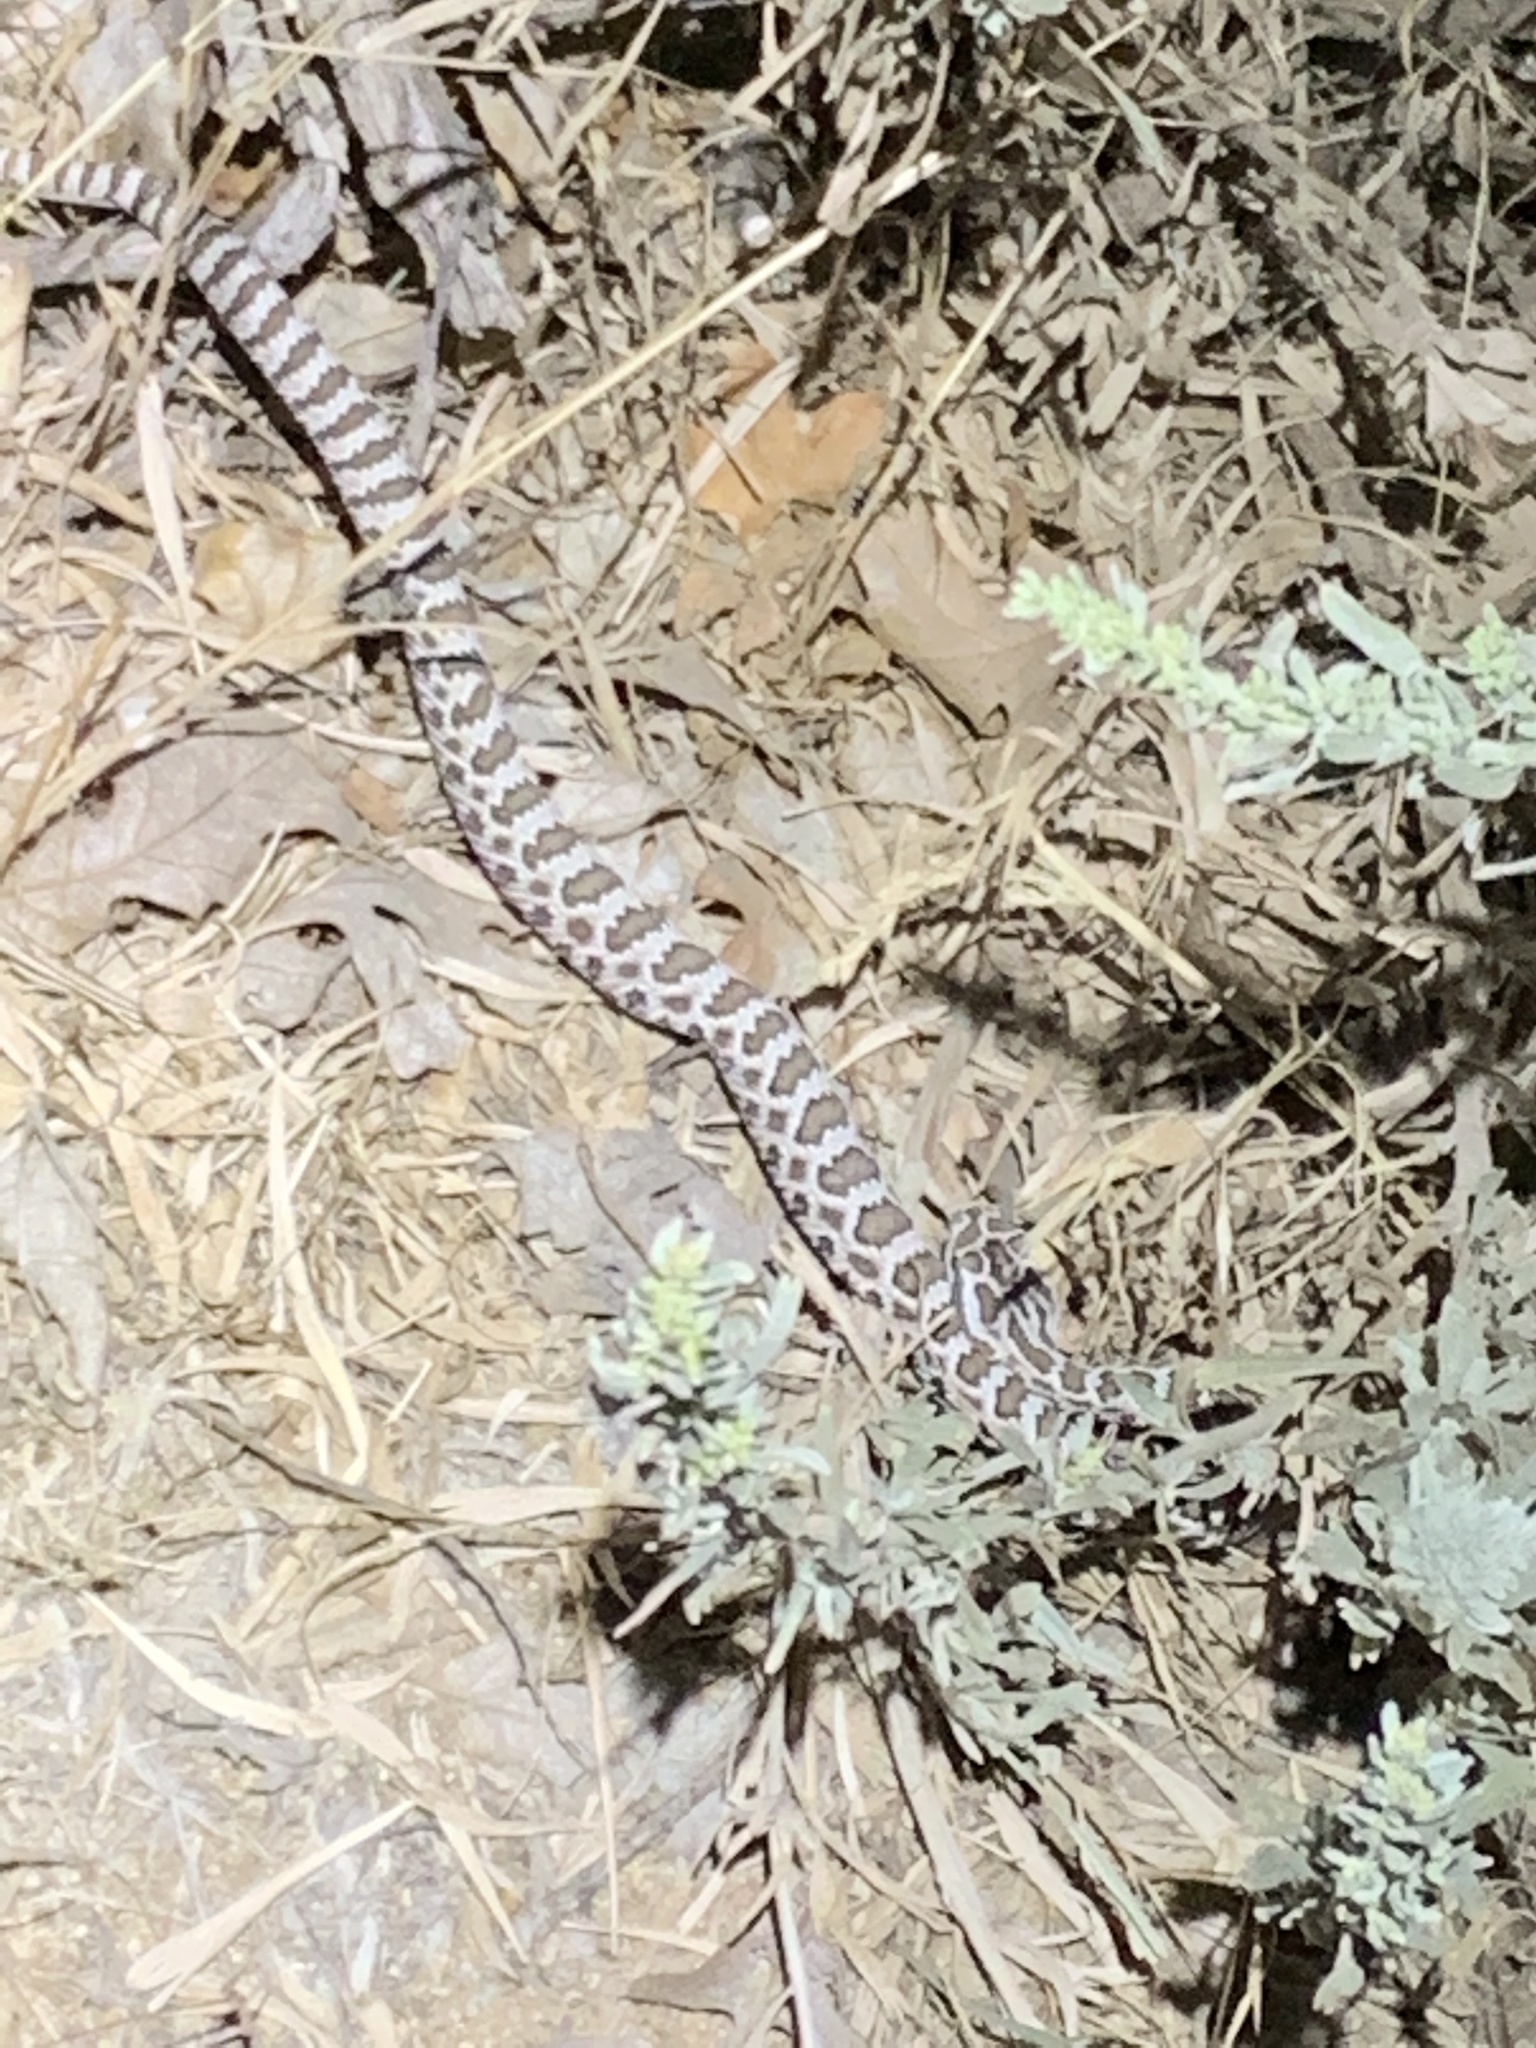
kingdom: Animalia
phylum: Chordata
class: Squamata
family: Viperidae
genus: Crotalus
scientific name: Crotalus oreganus
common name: Abyssus
